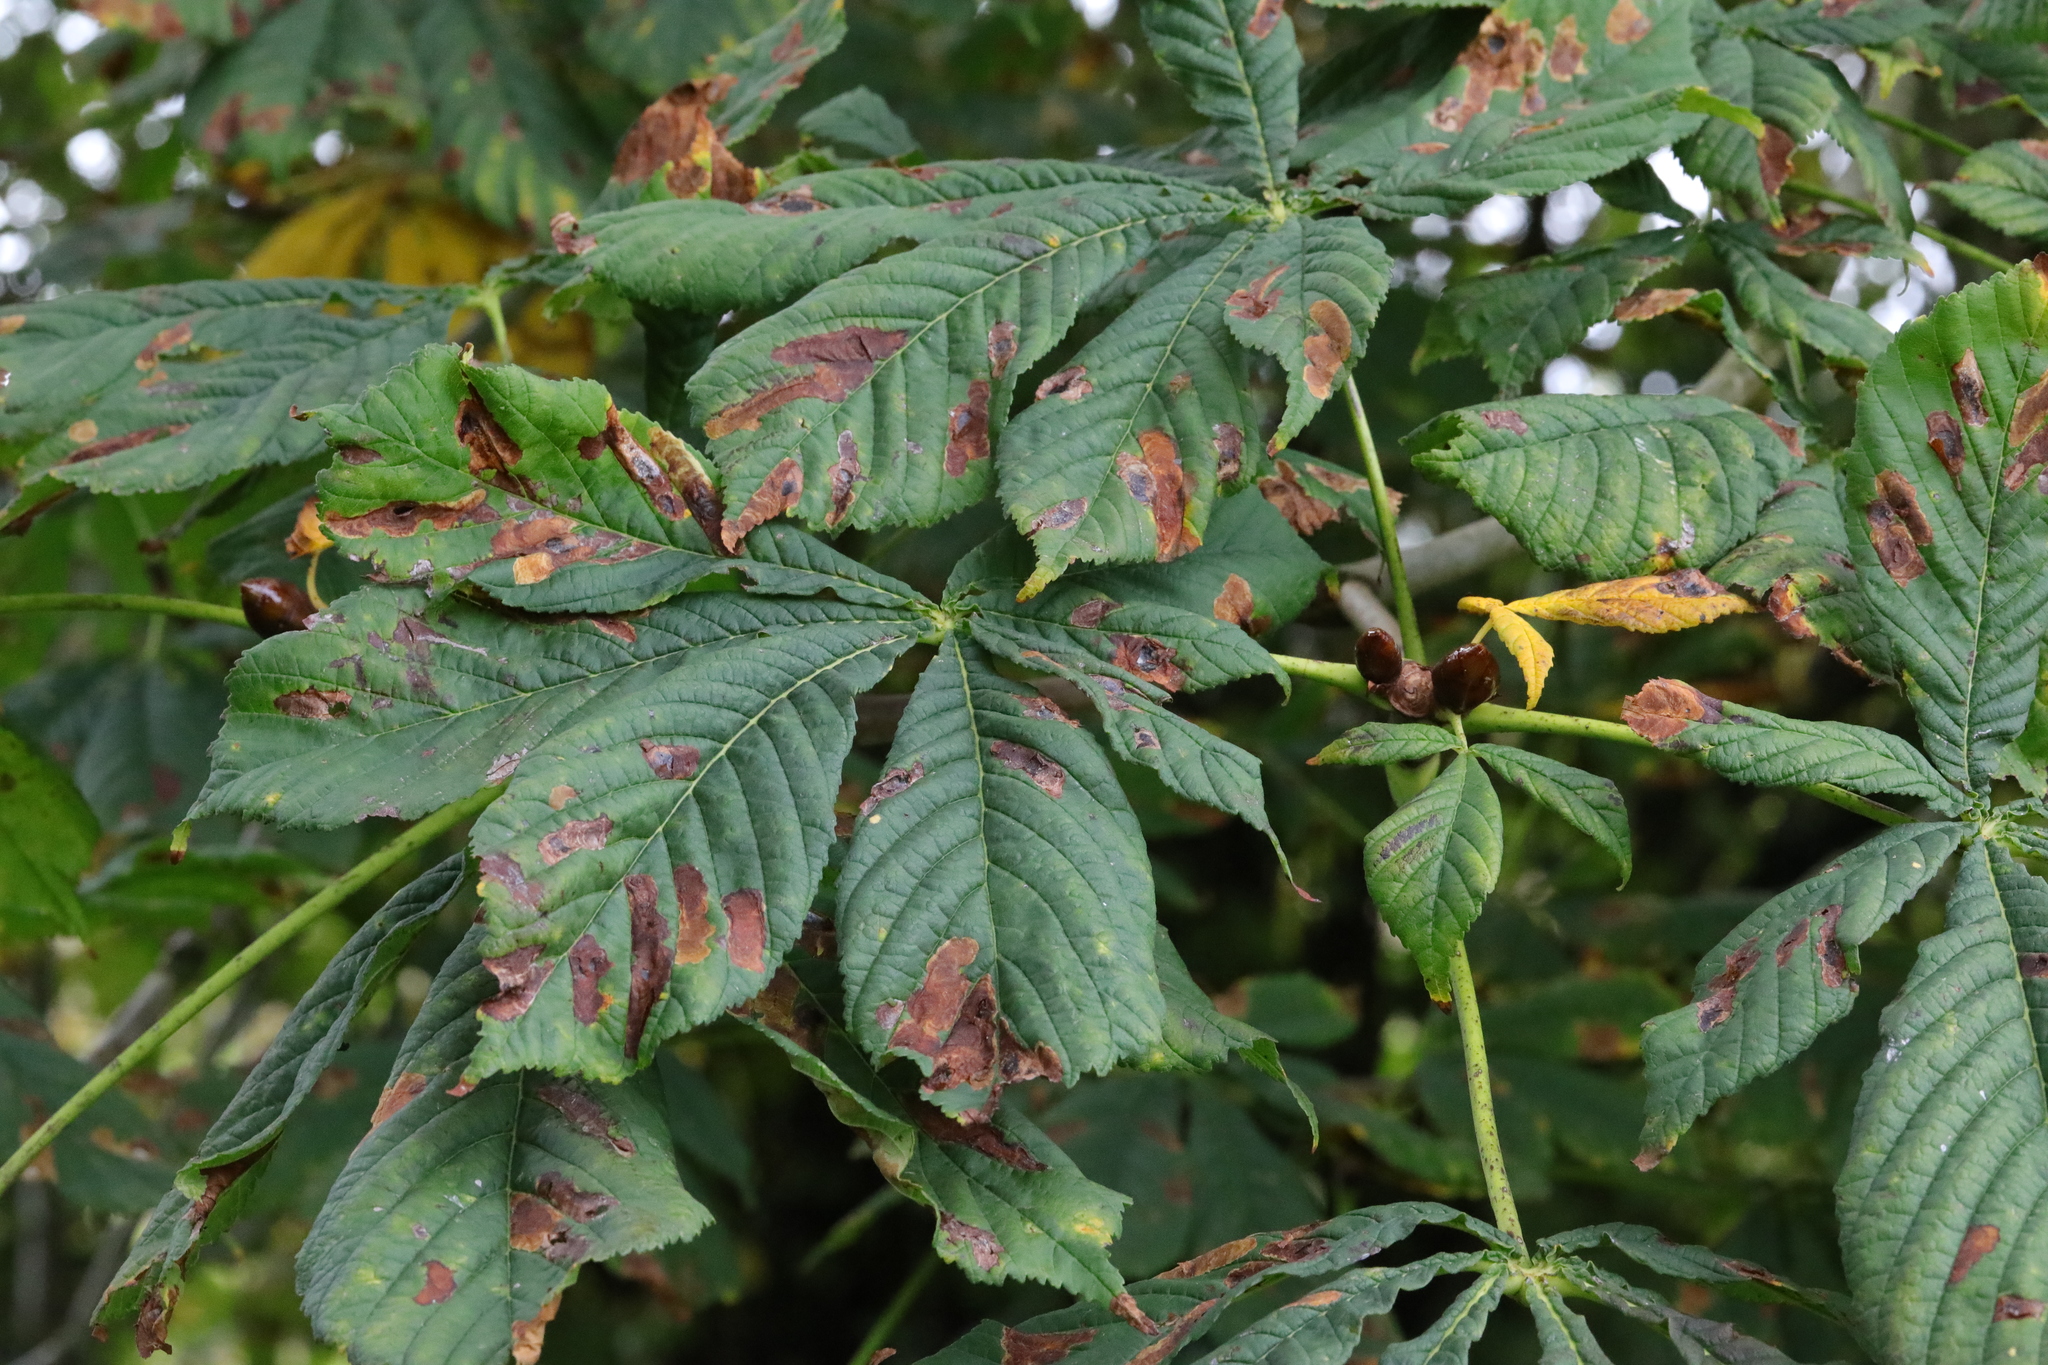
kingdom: Animalia
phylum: Arthropoda
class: Insecta
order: Lepidoptera
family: Gracillariidae
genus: Cameraria
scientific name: Cameraria ohridella
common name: Horse-chestnut leaf-miner
